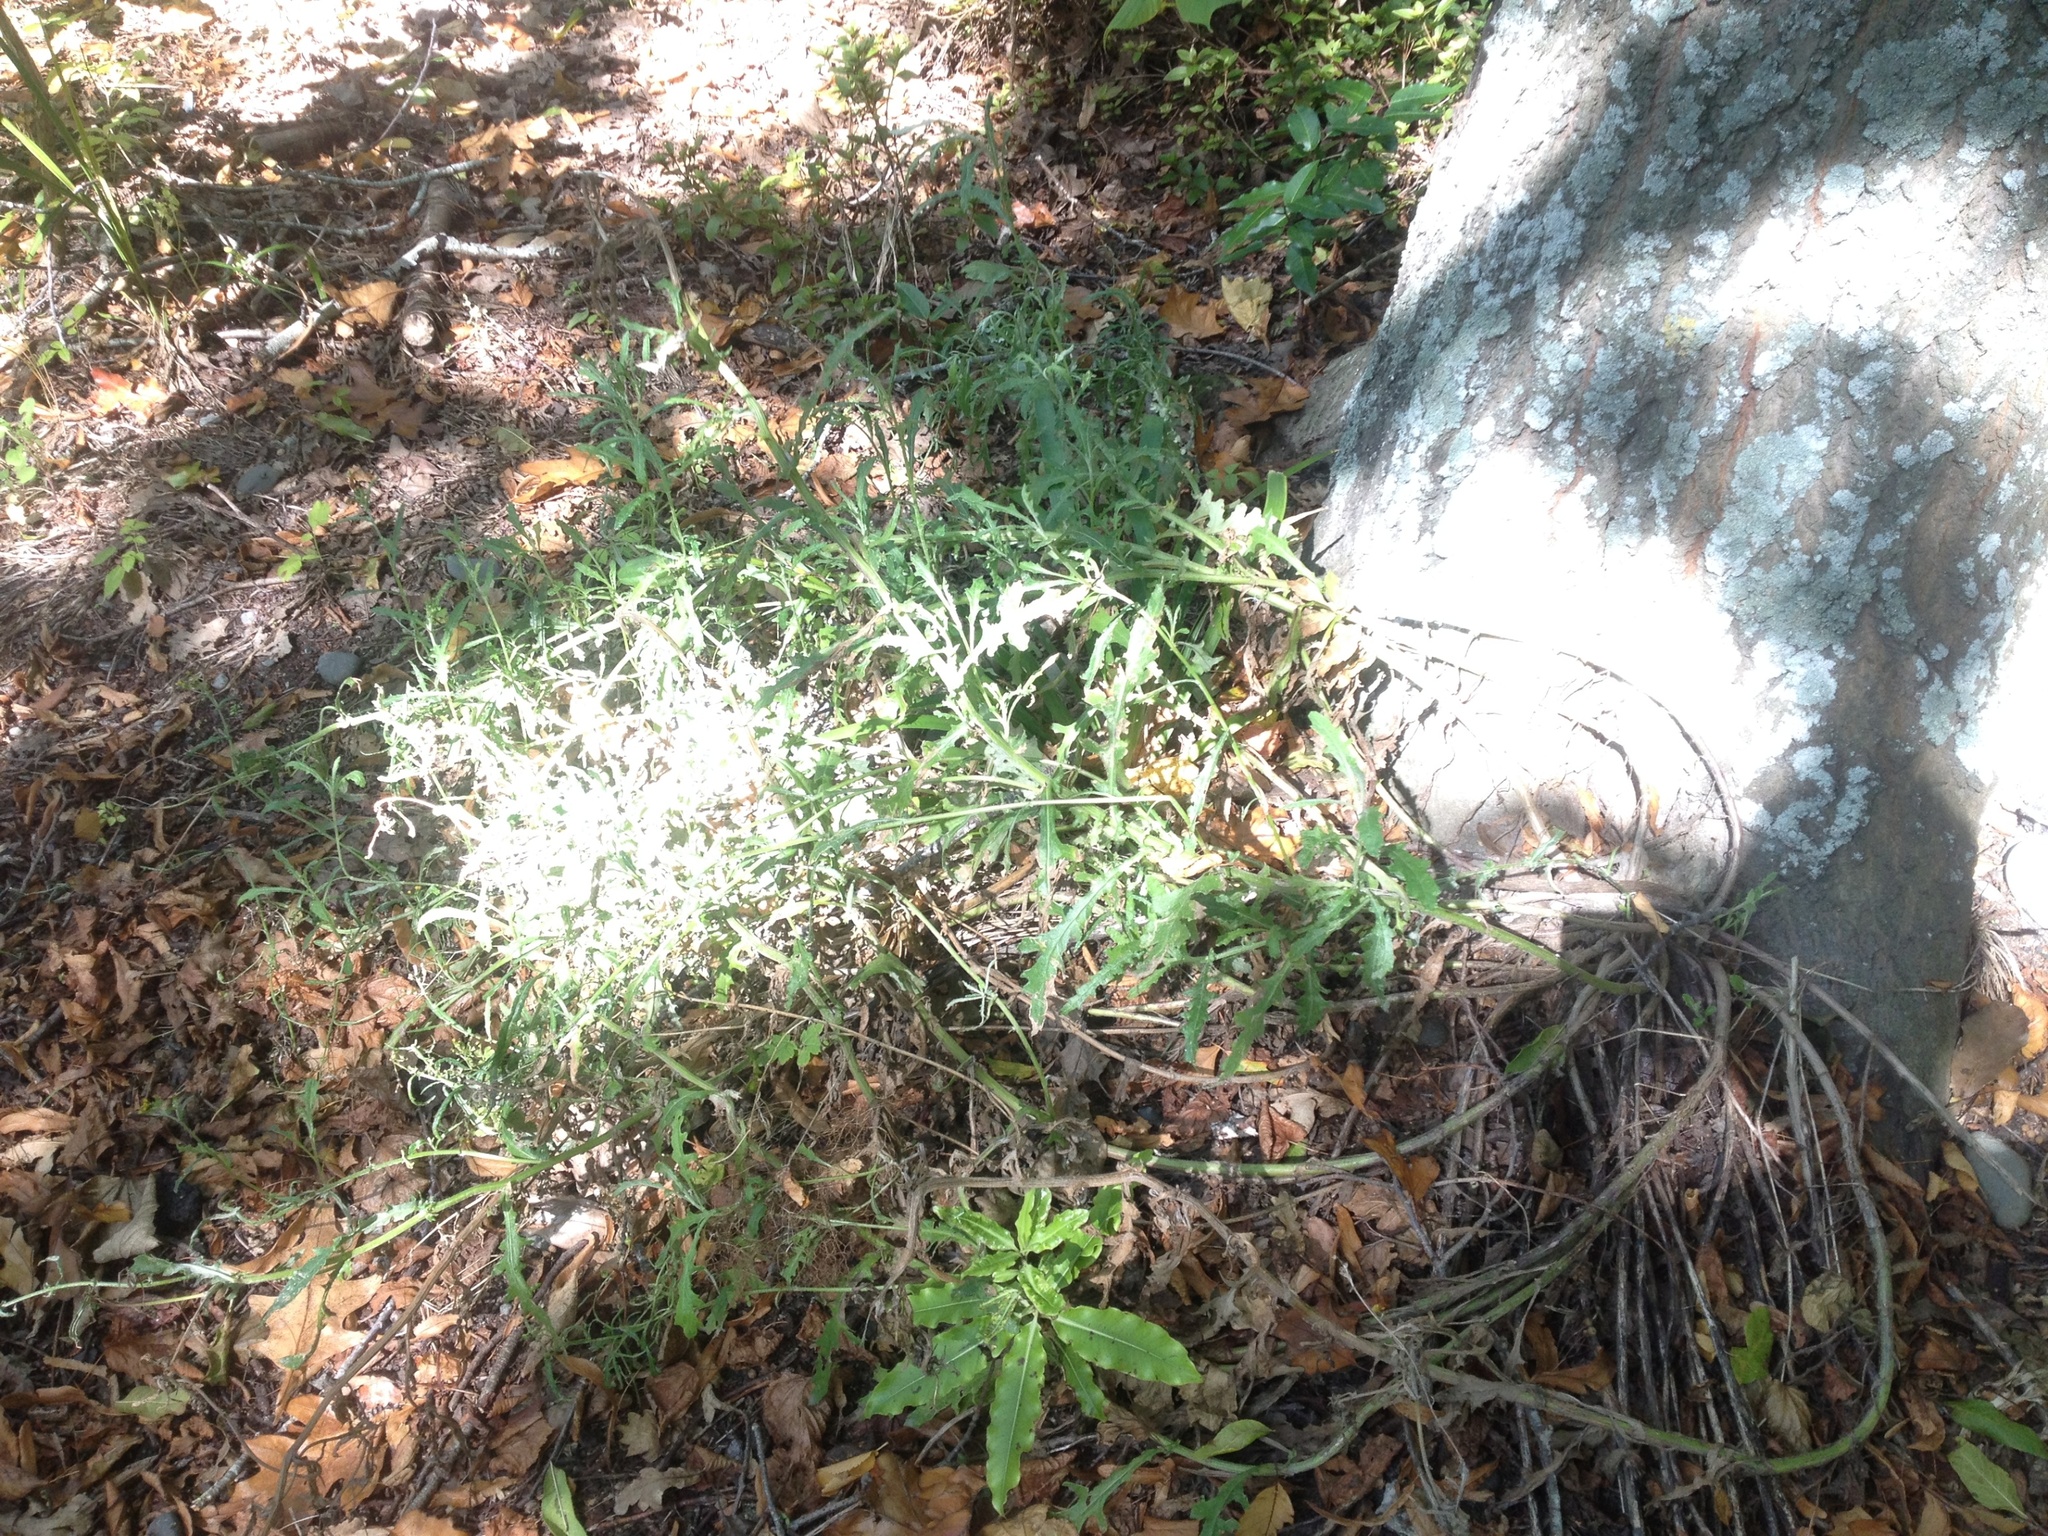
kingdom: Plantae
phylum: Tracheophyta
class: Magnoliopsida
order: Asterales
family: Asteraceae
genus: Senecio
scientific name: Senecio glomeratus
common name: Cutleaf burnweed
